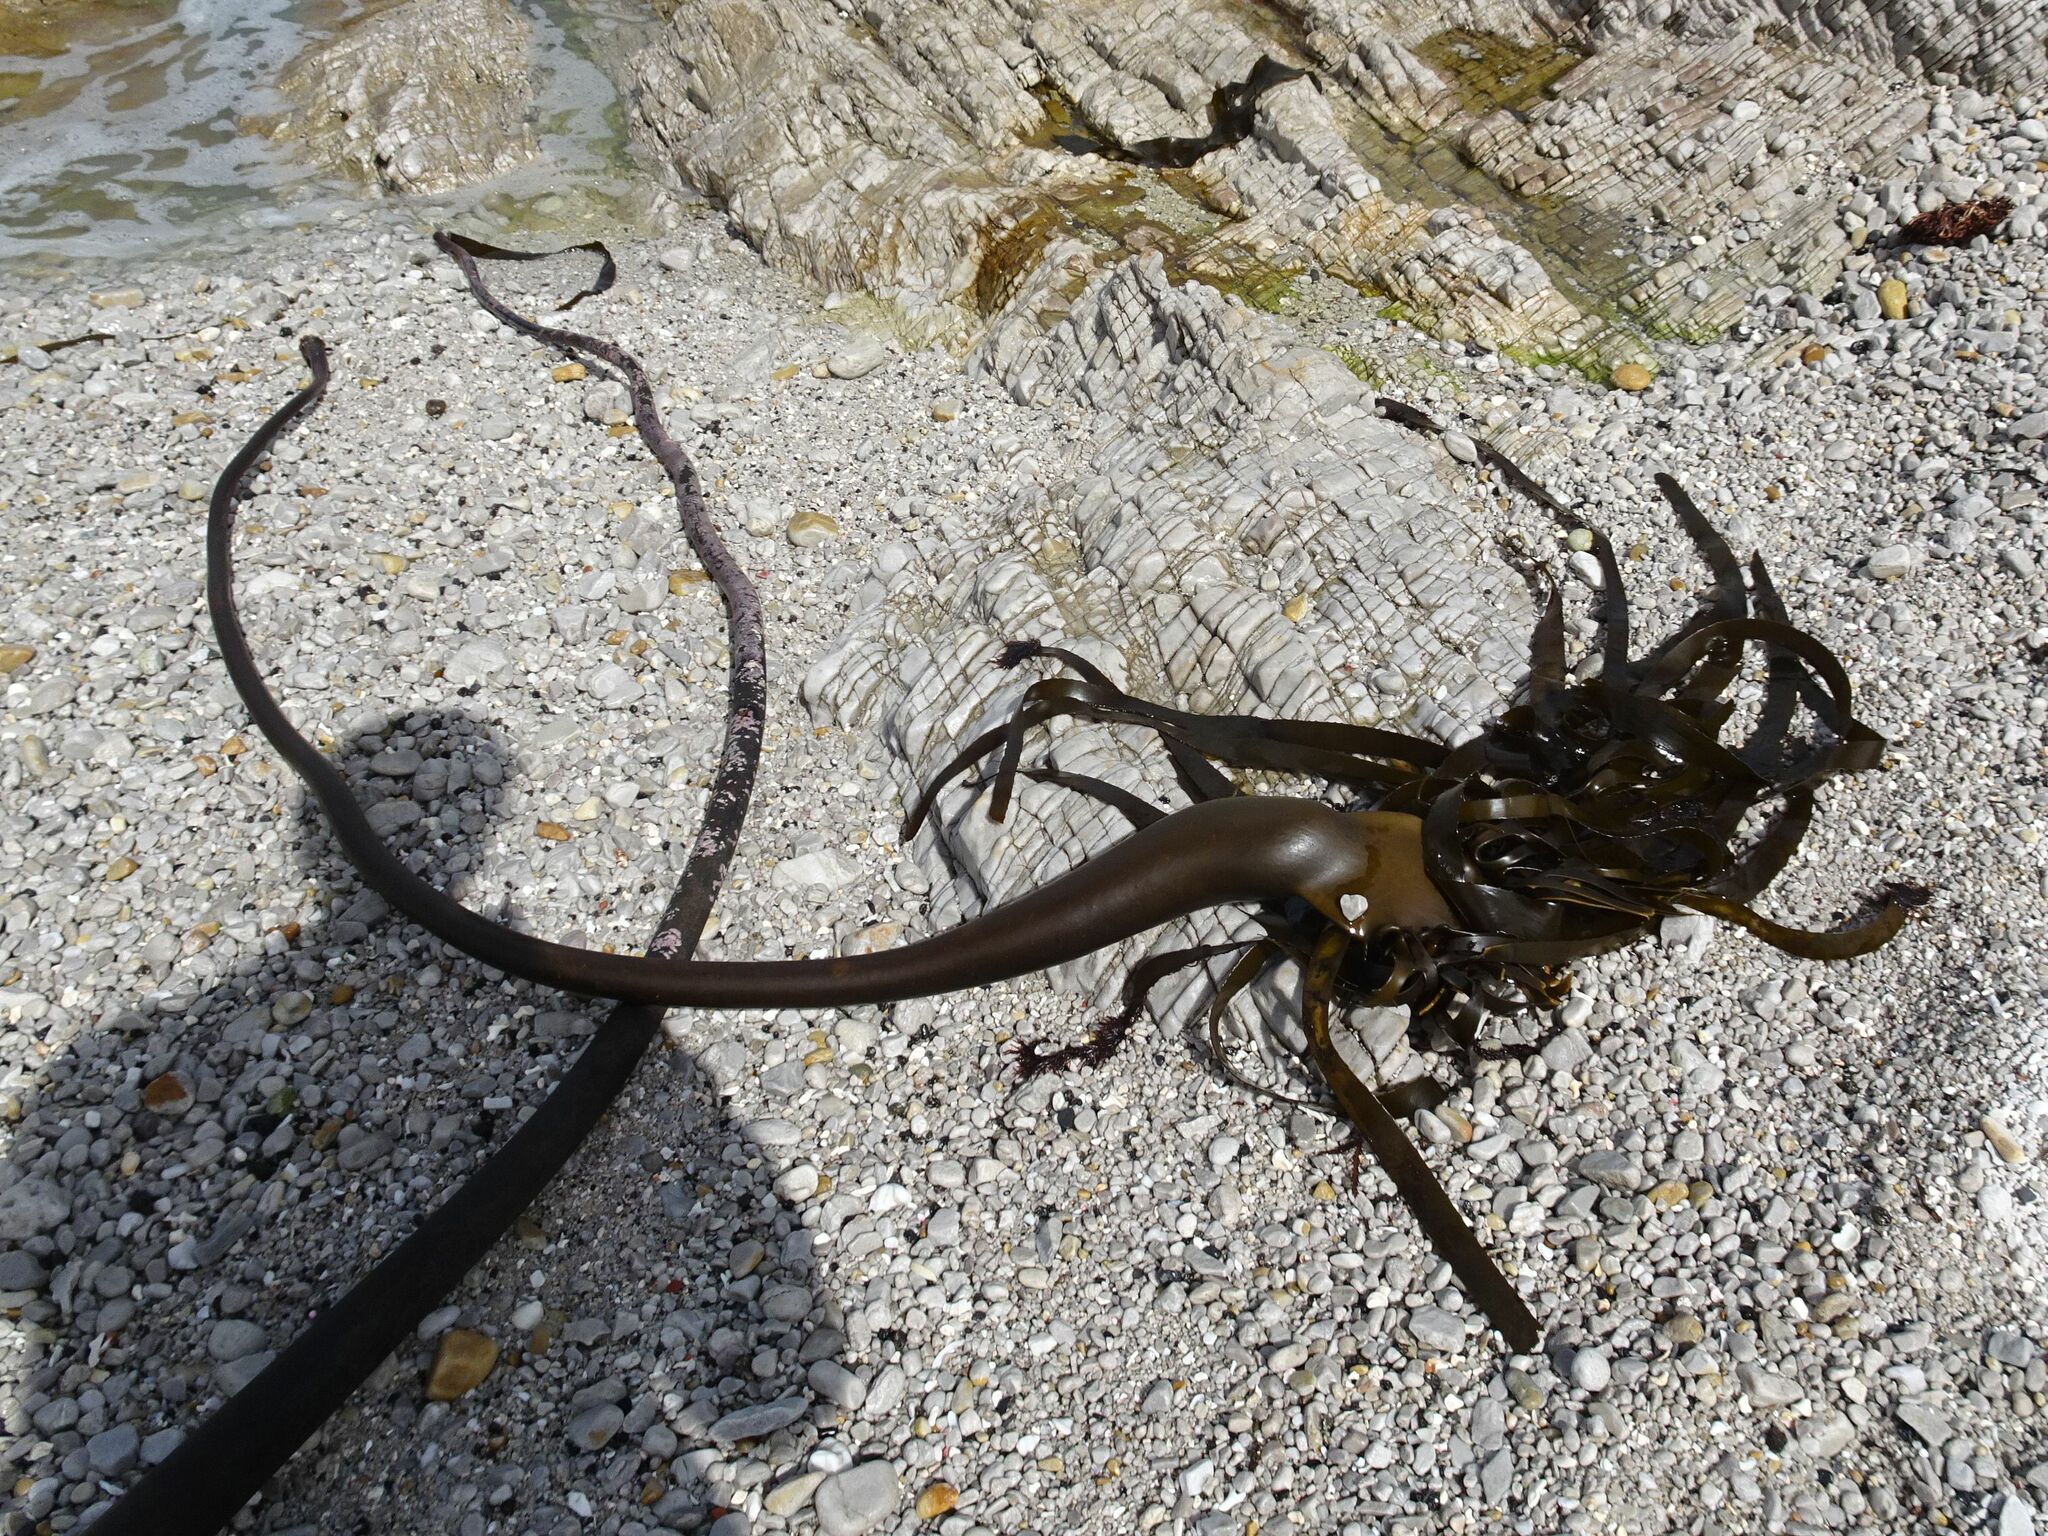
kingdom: Chromista
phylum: Ochrophyta
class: Phaeophyceae
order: Laminariales
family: Lessoniaceae
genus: Ecklonia
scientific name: Ecklonia
